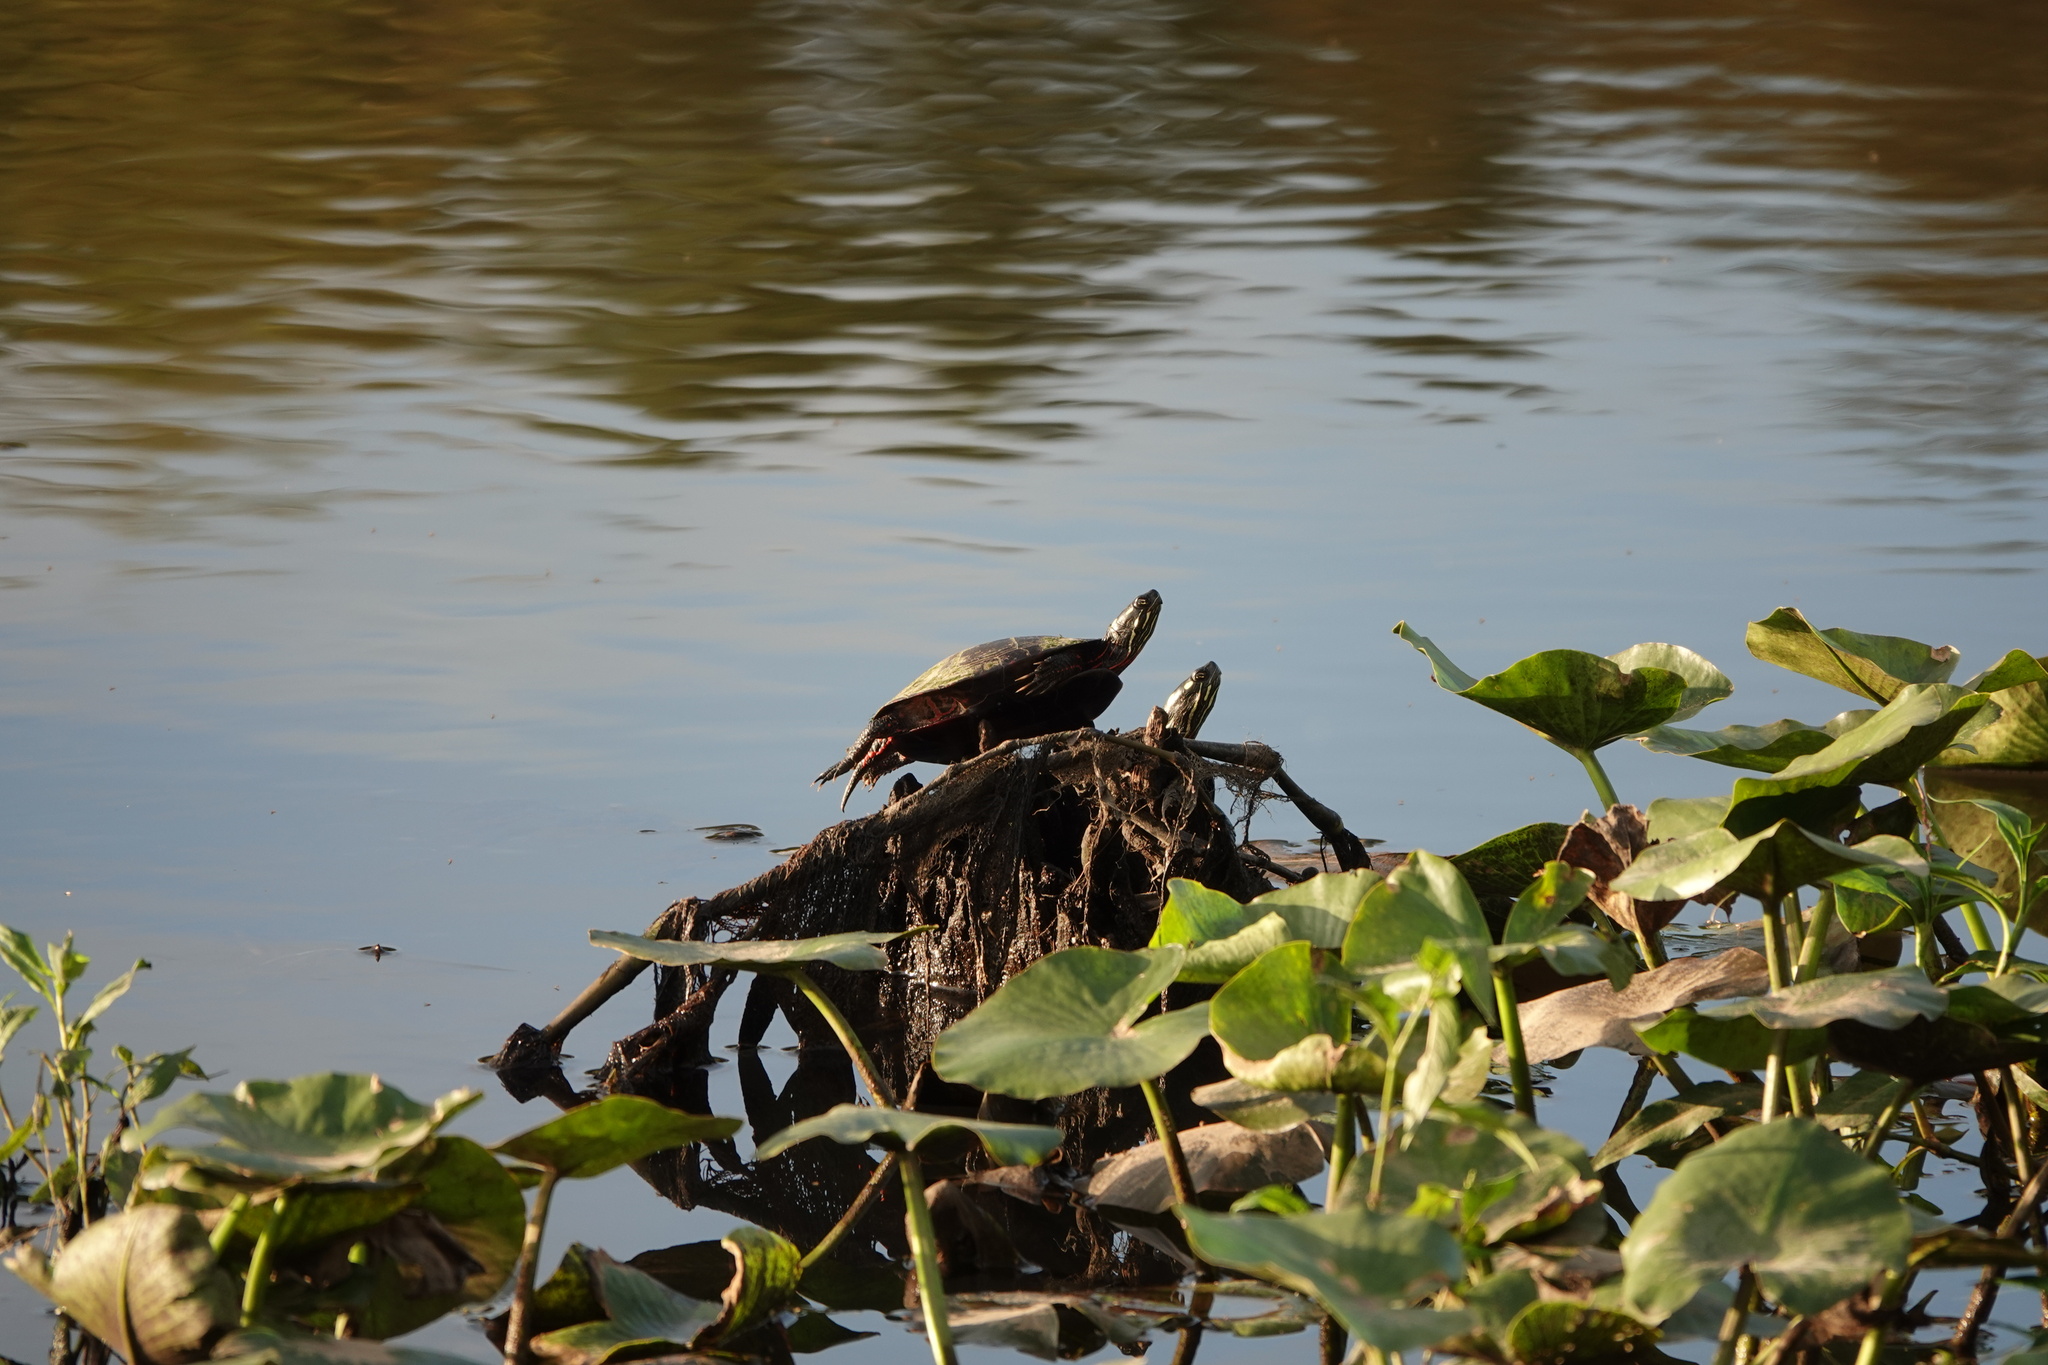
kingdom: Animalia
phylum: Chordata
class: Testudines
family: Emydidae
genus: Chrysemys
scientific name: Chrysemys picta
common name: Painted turtle
